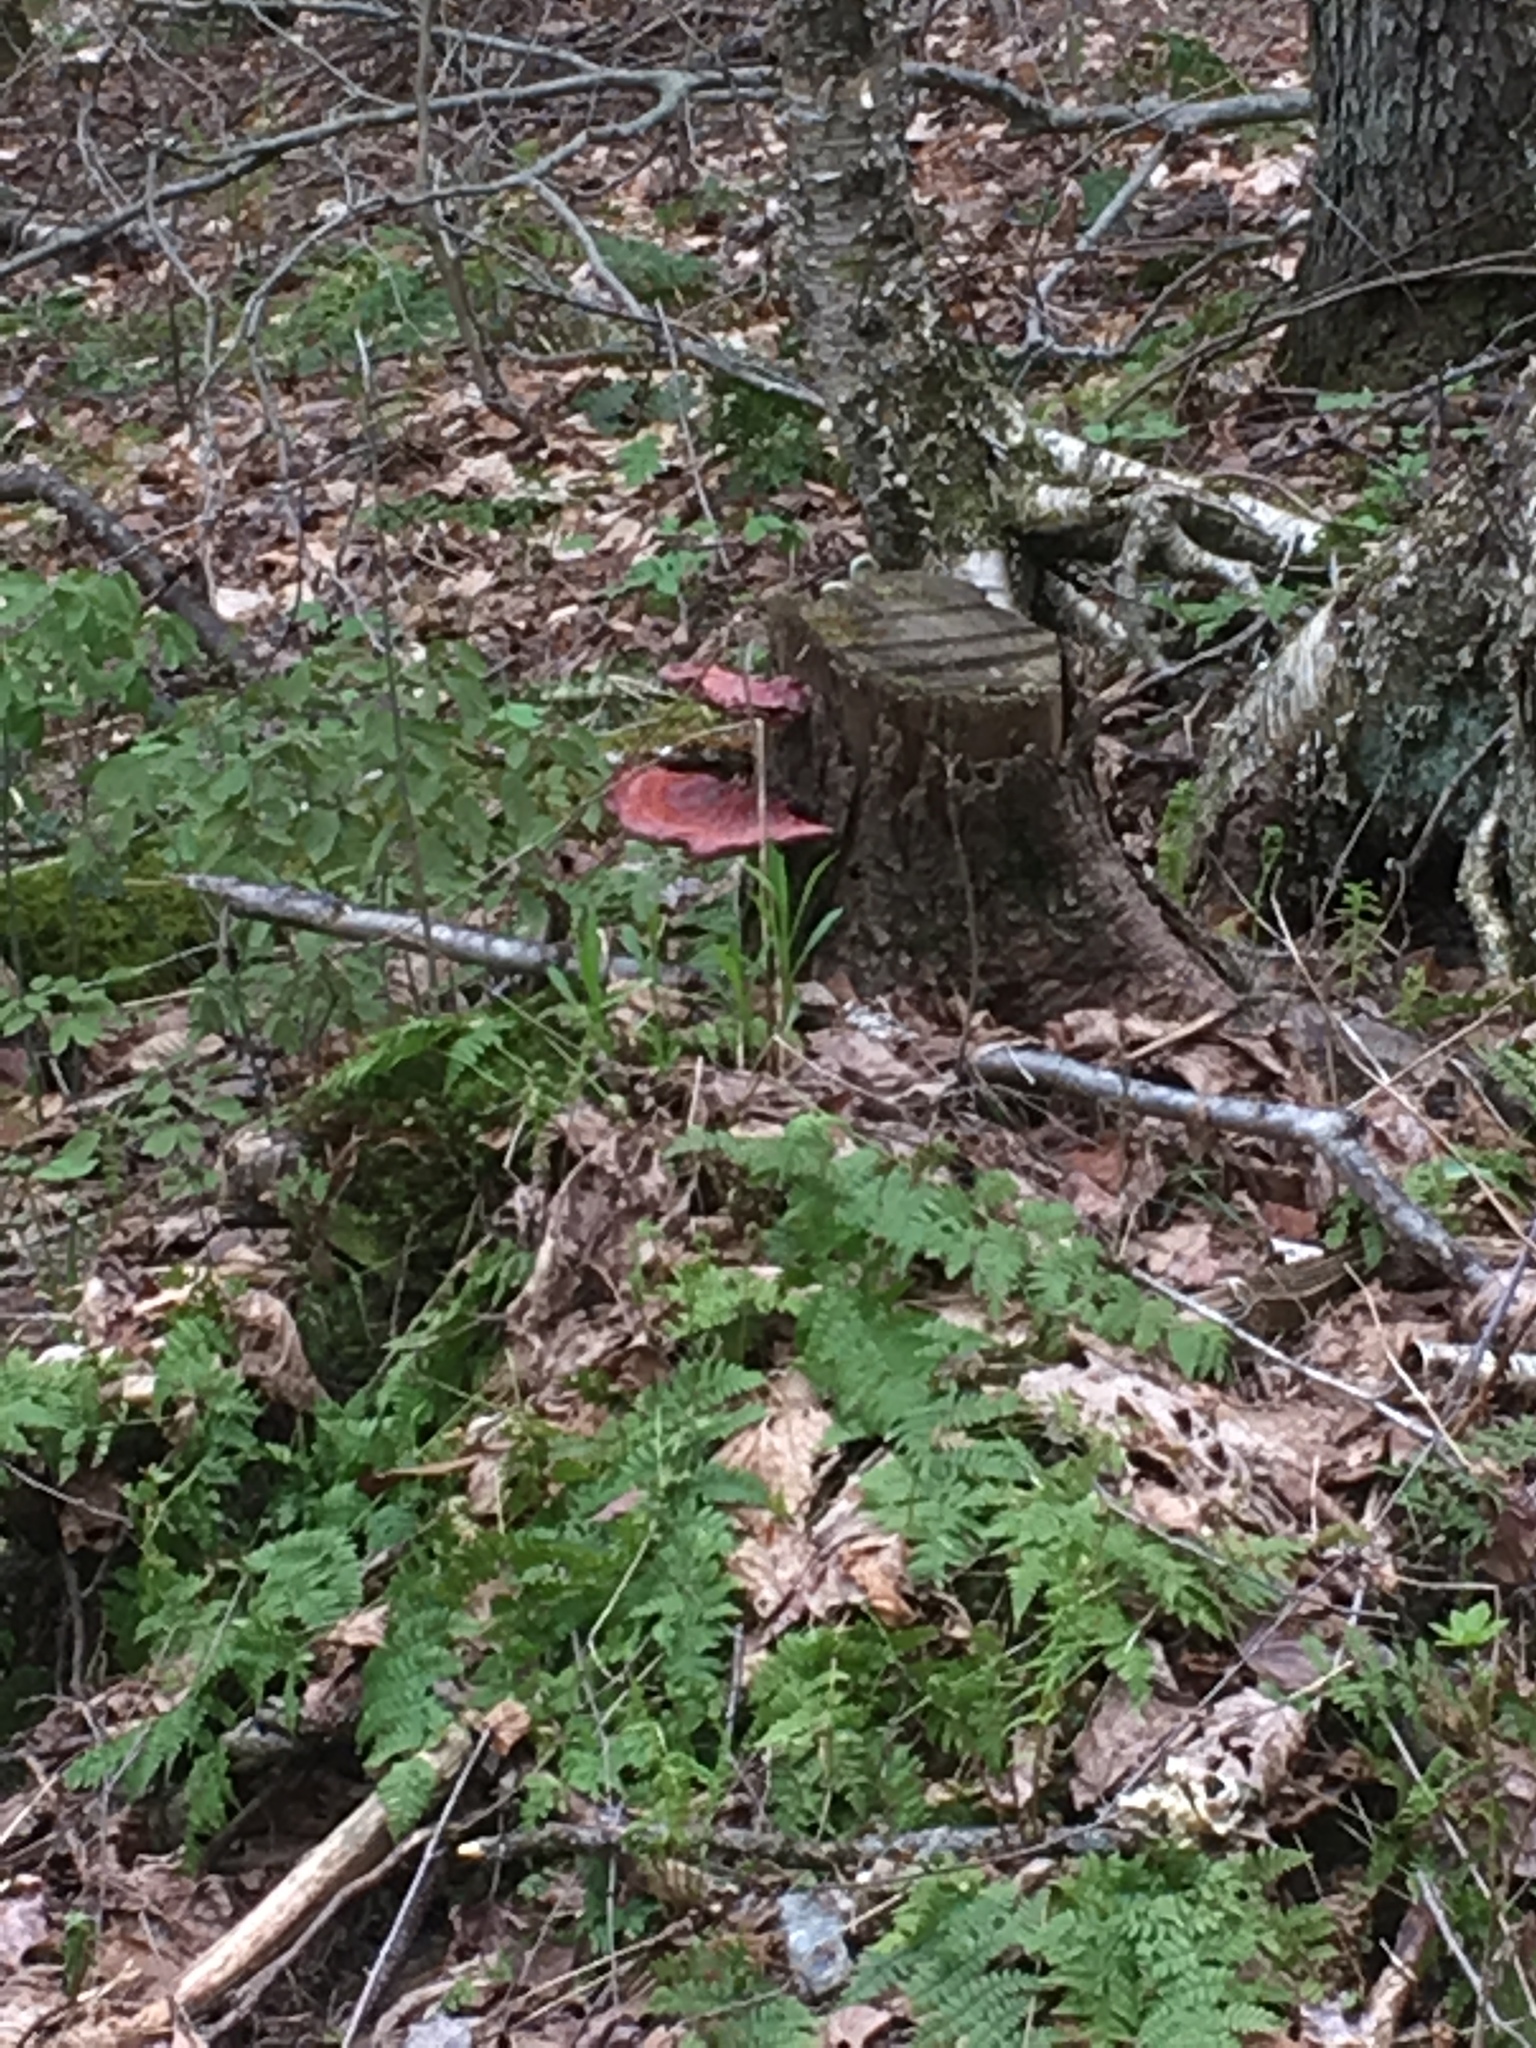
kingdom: Fungi
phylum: Basidiomycota
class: Agaricomycetes
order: Polyporales
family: Polyporaceae
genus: Ganoderma
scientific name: Ganoderma tsugae
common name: Hemlock varnish shelf
